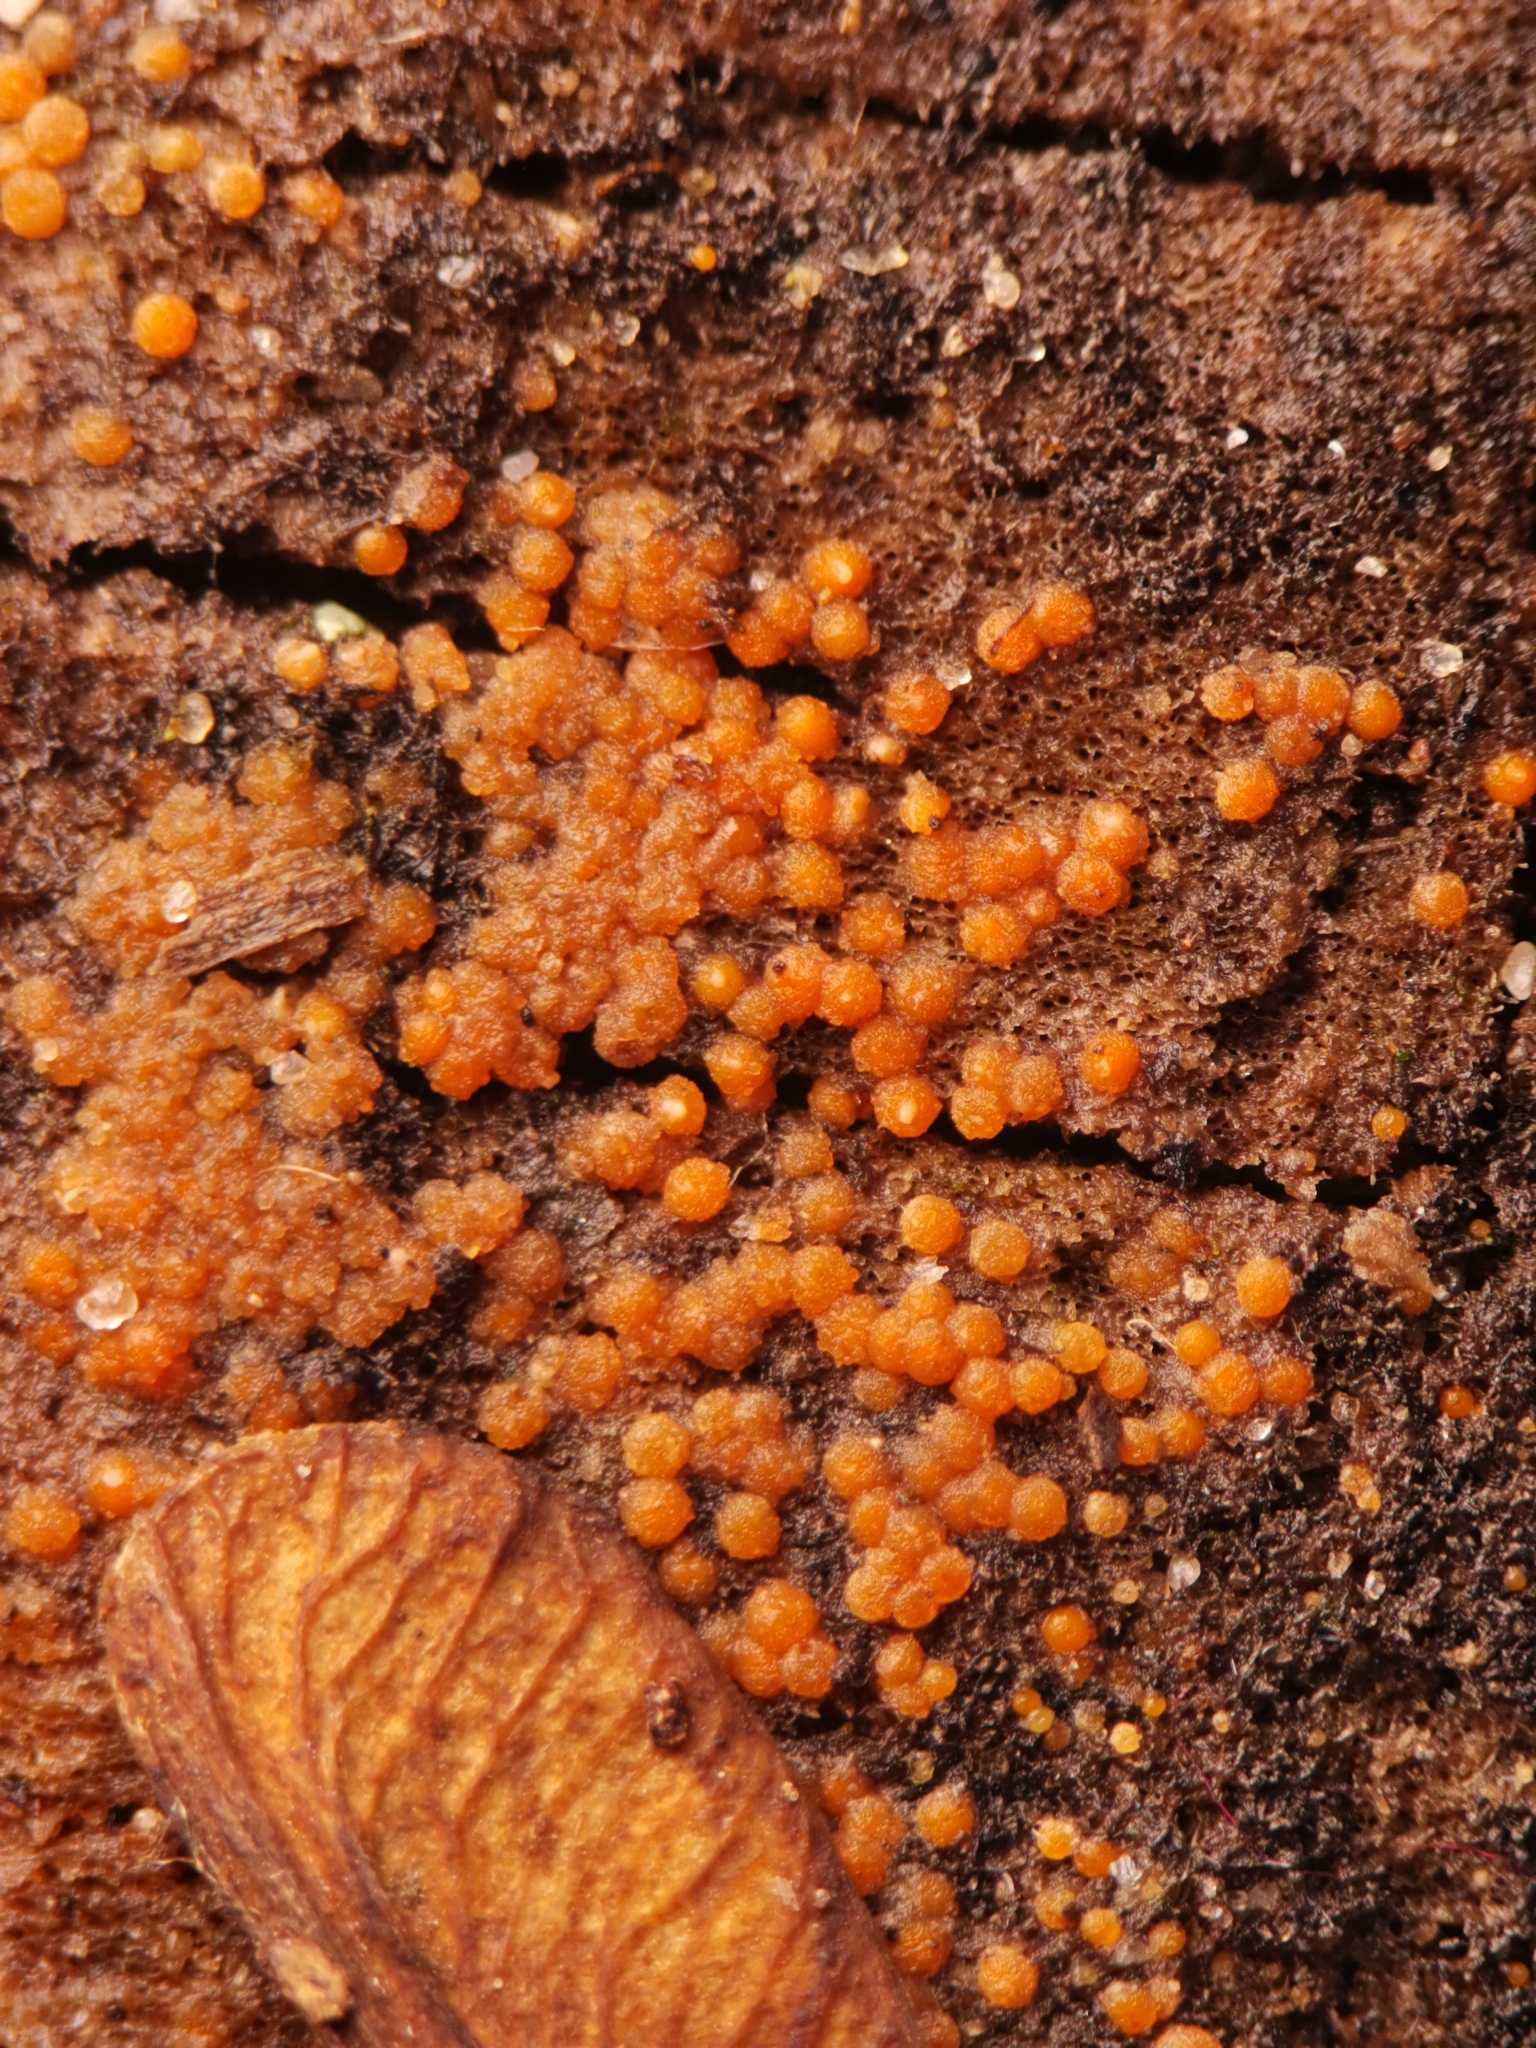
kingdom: Fungi
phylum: Ascomycota
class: Sordariomycetes
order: Hypocreales
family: Nectriaceae
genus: Hydropisphaera
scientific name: Hydropisphaera peziza
